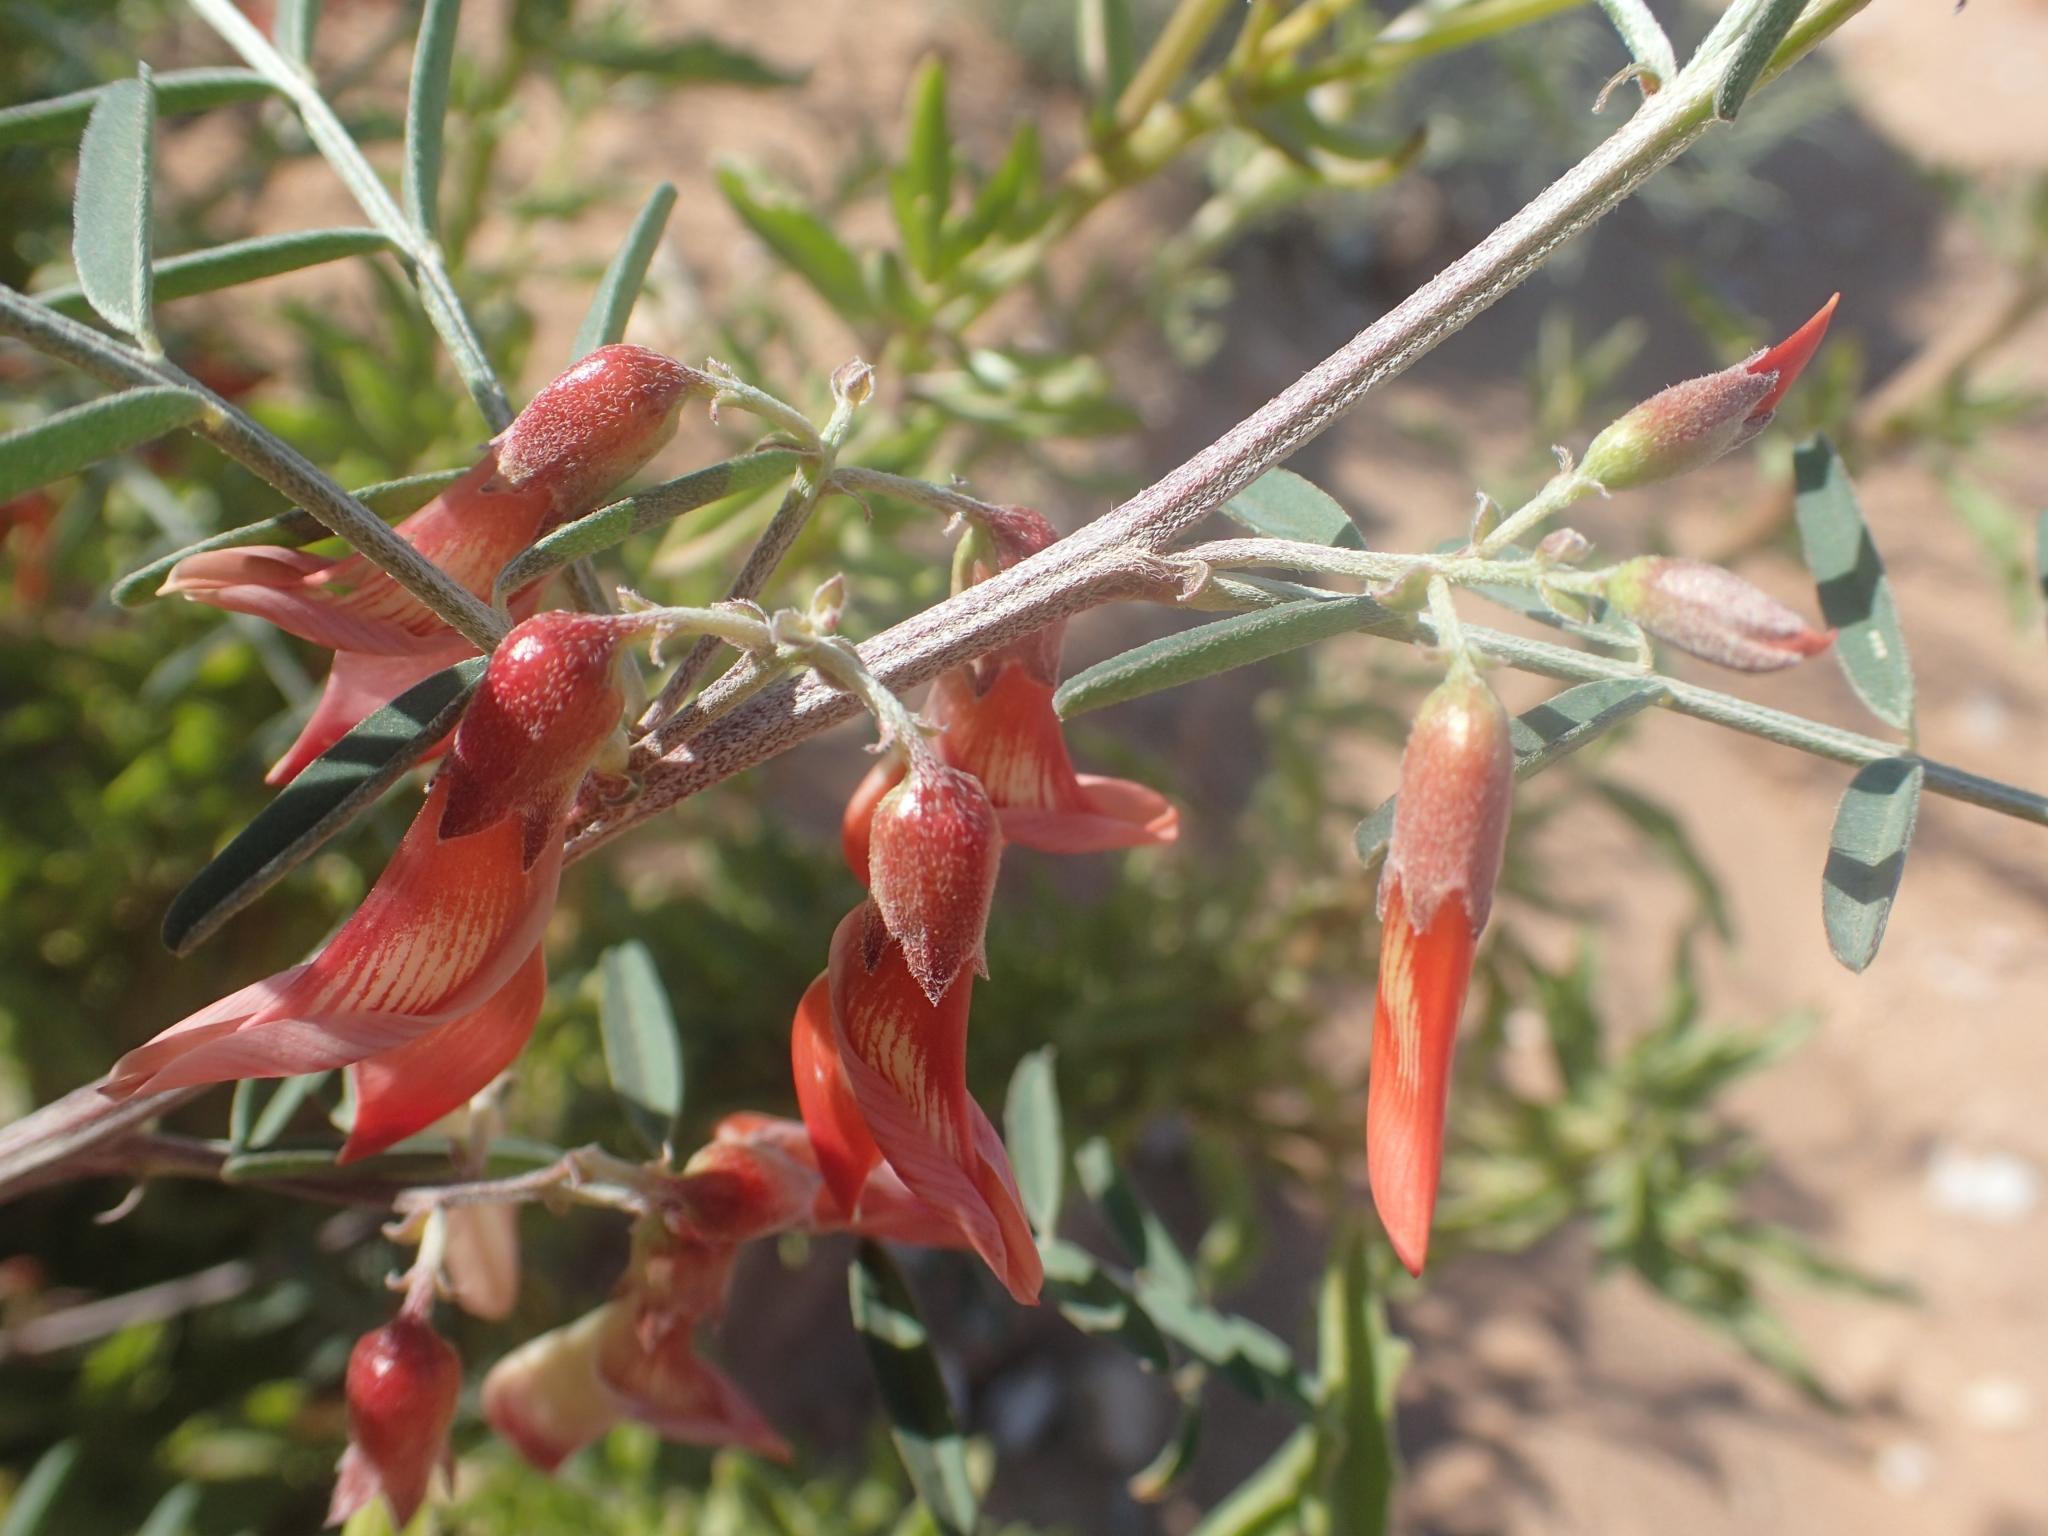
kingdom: Plantae
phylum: Tracheophyta
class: Magnoliopsida
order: Fabales
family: Fabaceae
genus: Lessertia
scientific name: Lessertia frutescens
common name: Balloon-pea
